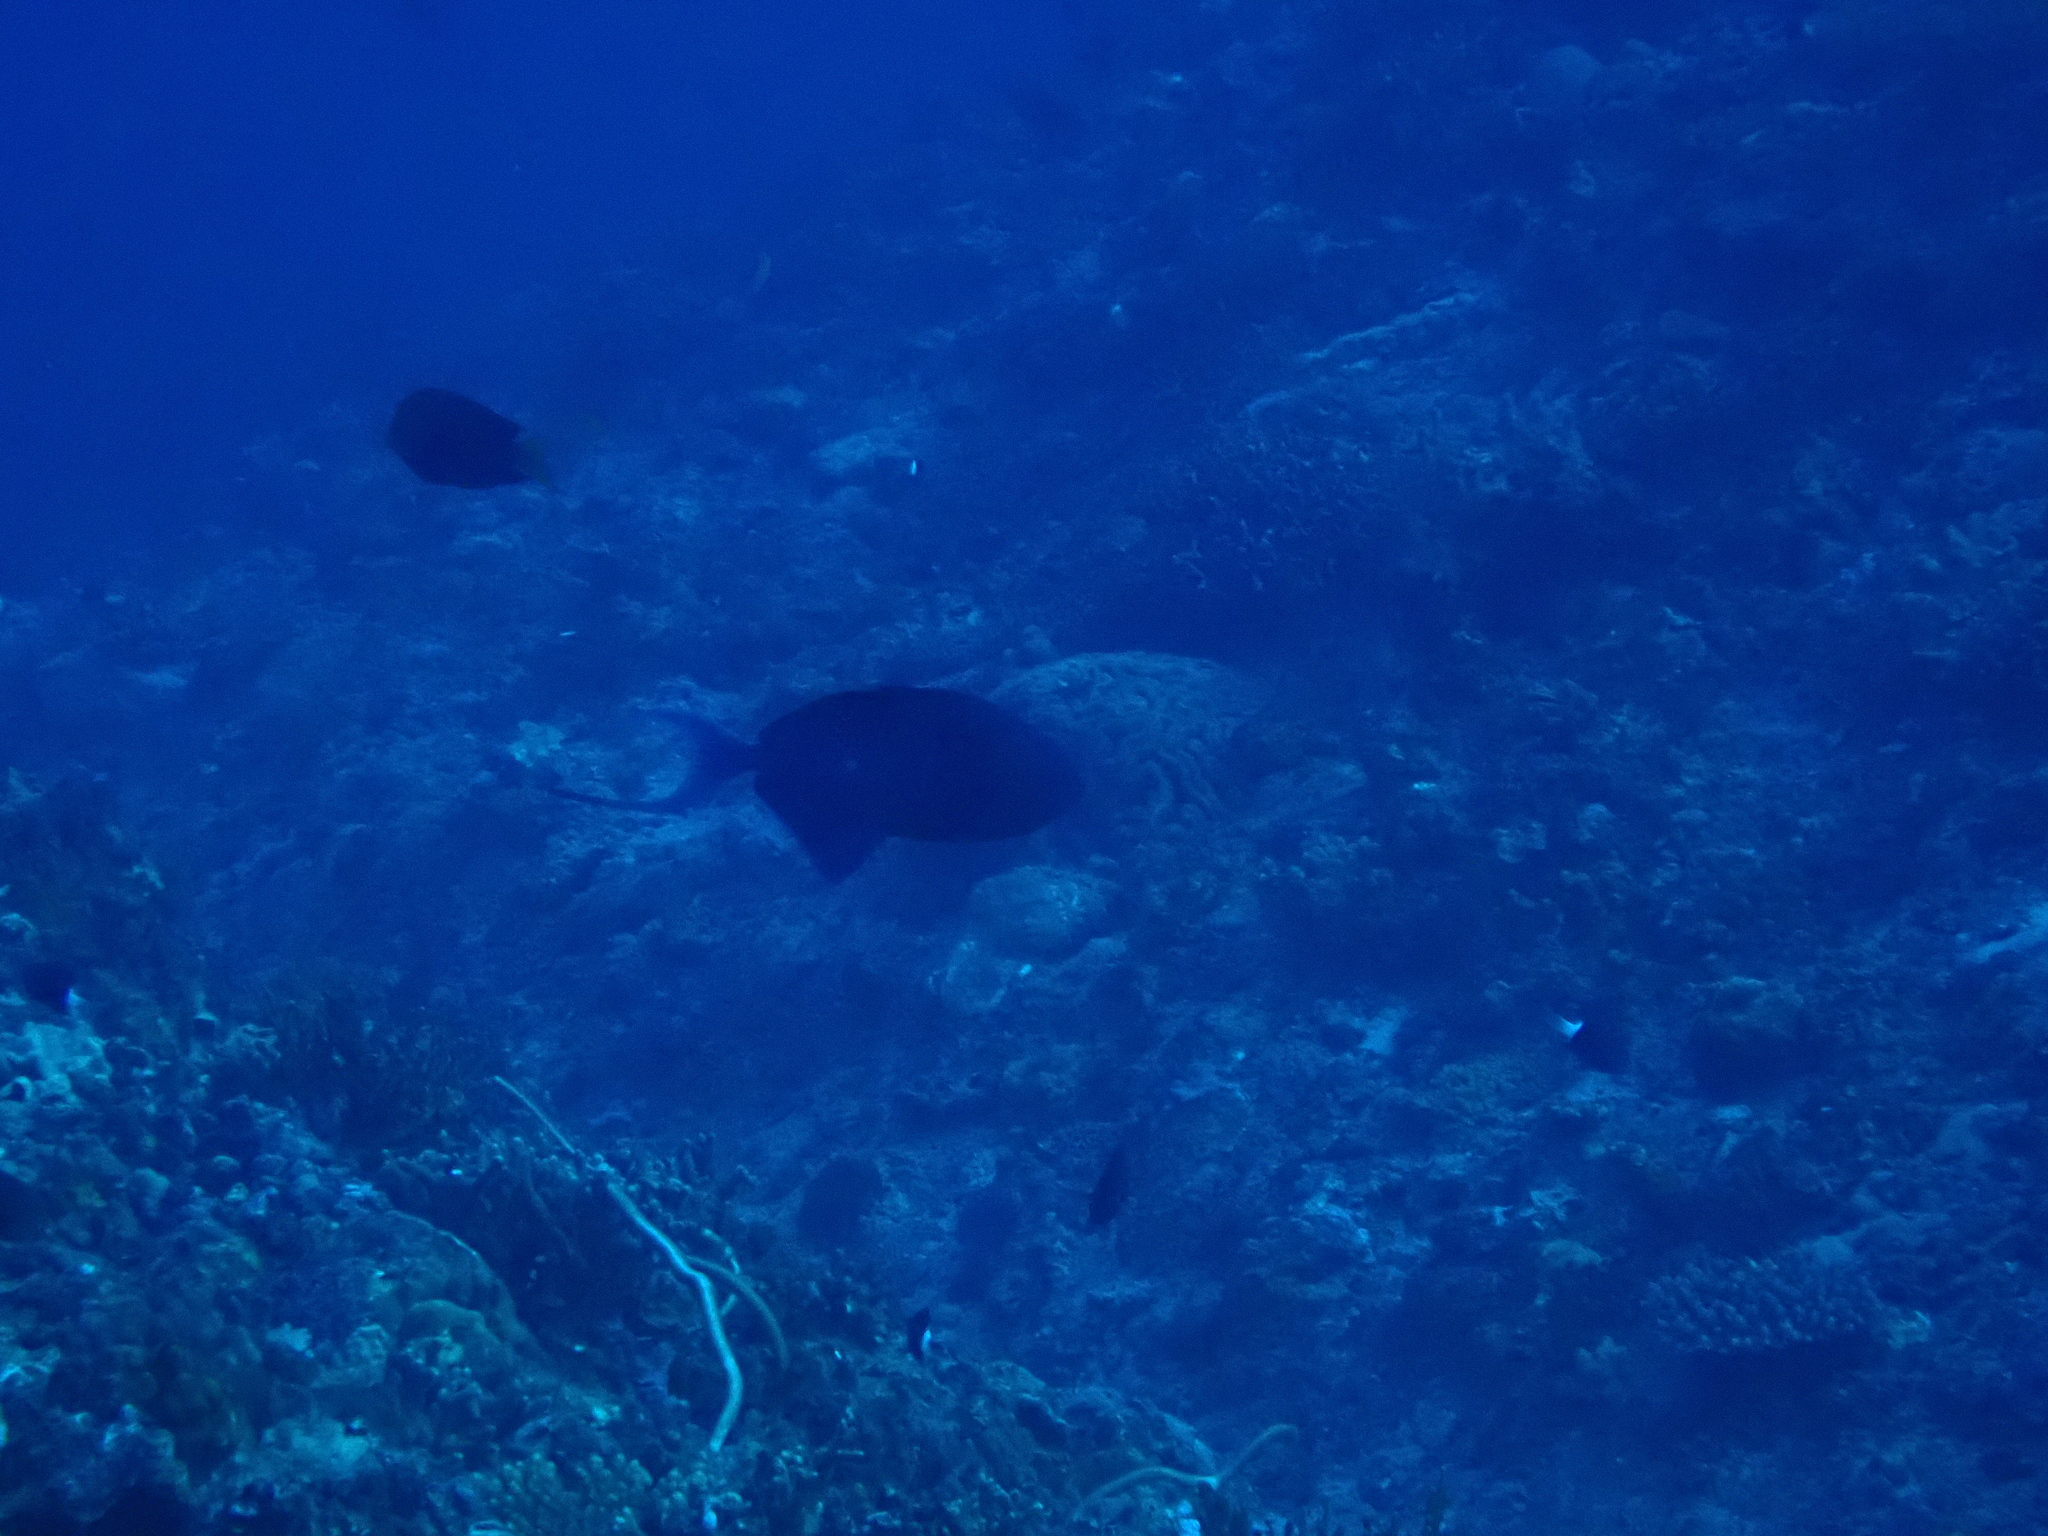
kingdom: Animalia
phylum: Chordata
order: Tetraodontiformes
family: Balistidae
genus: Odonus
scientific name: Odonus niger
